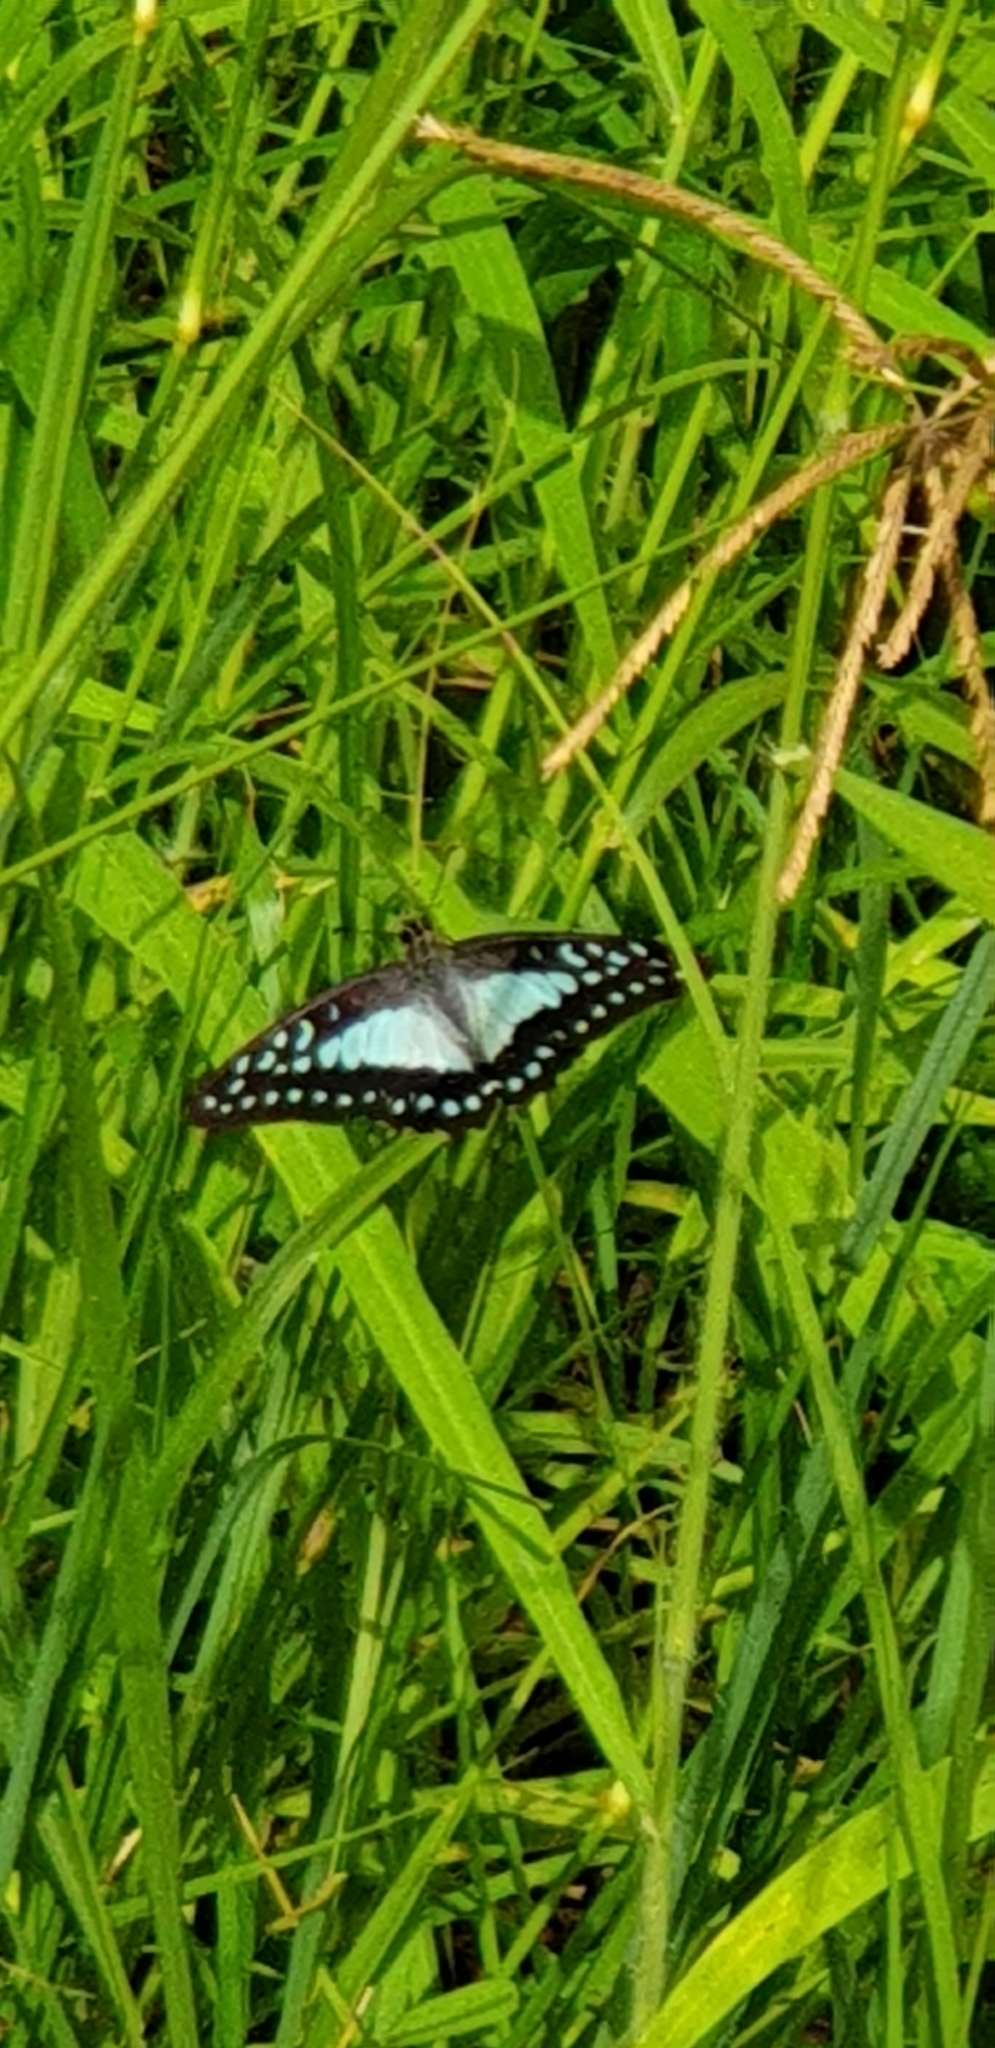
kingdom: Animalia
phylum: Arthropoda
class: Insecta
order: Lepidoptera
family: Papilionidae
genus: Graphium
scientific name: Graphium eurypylus
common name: Great jay
